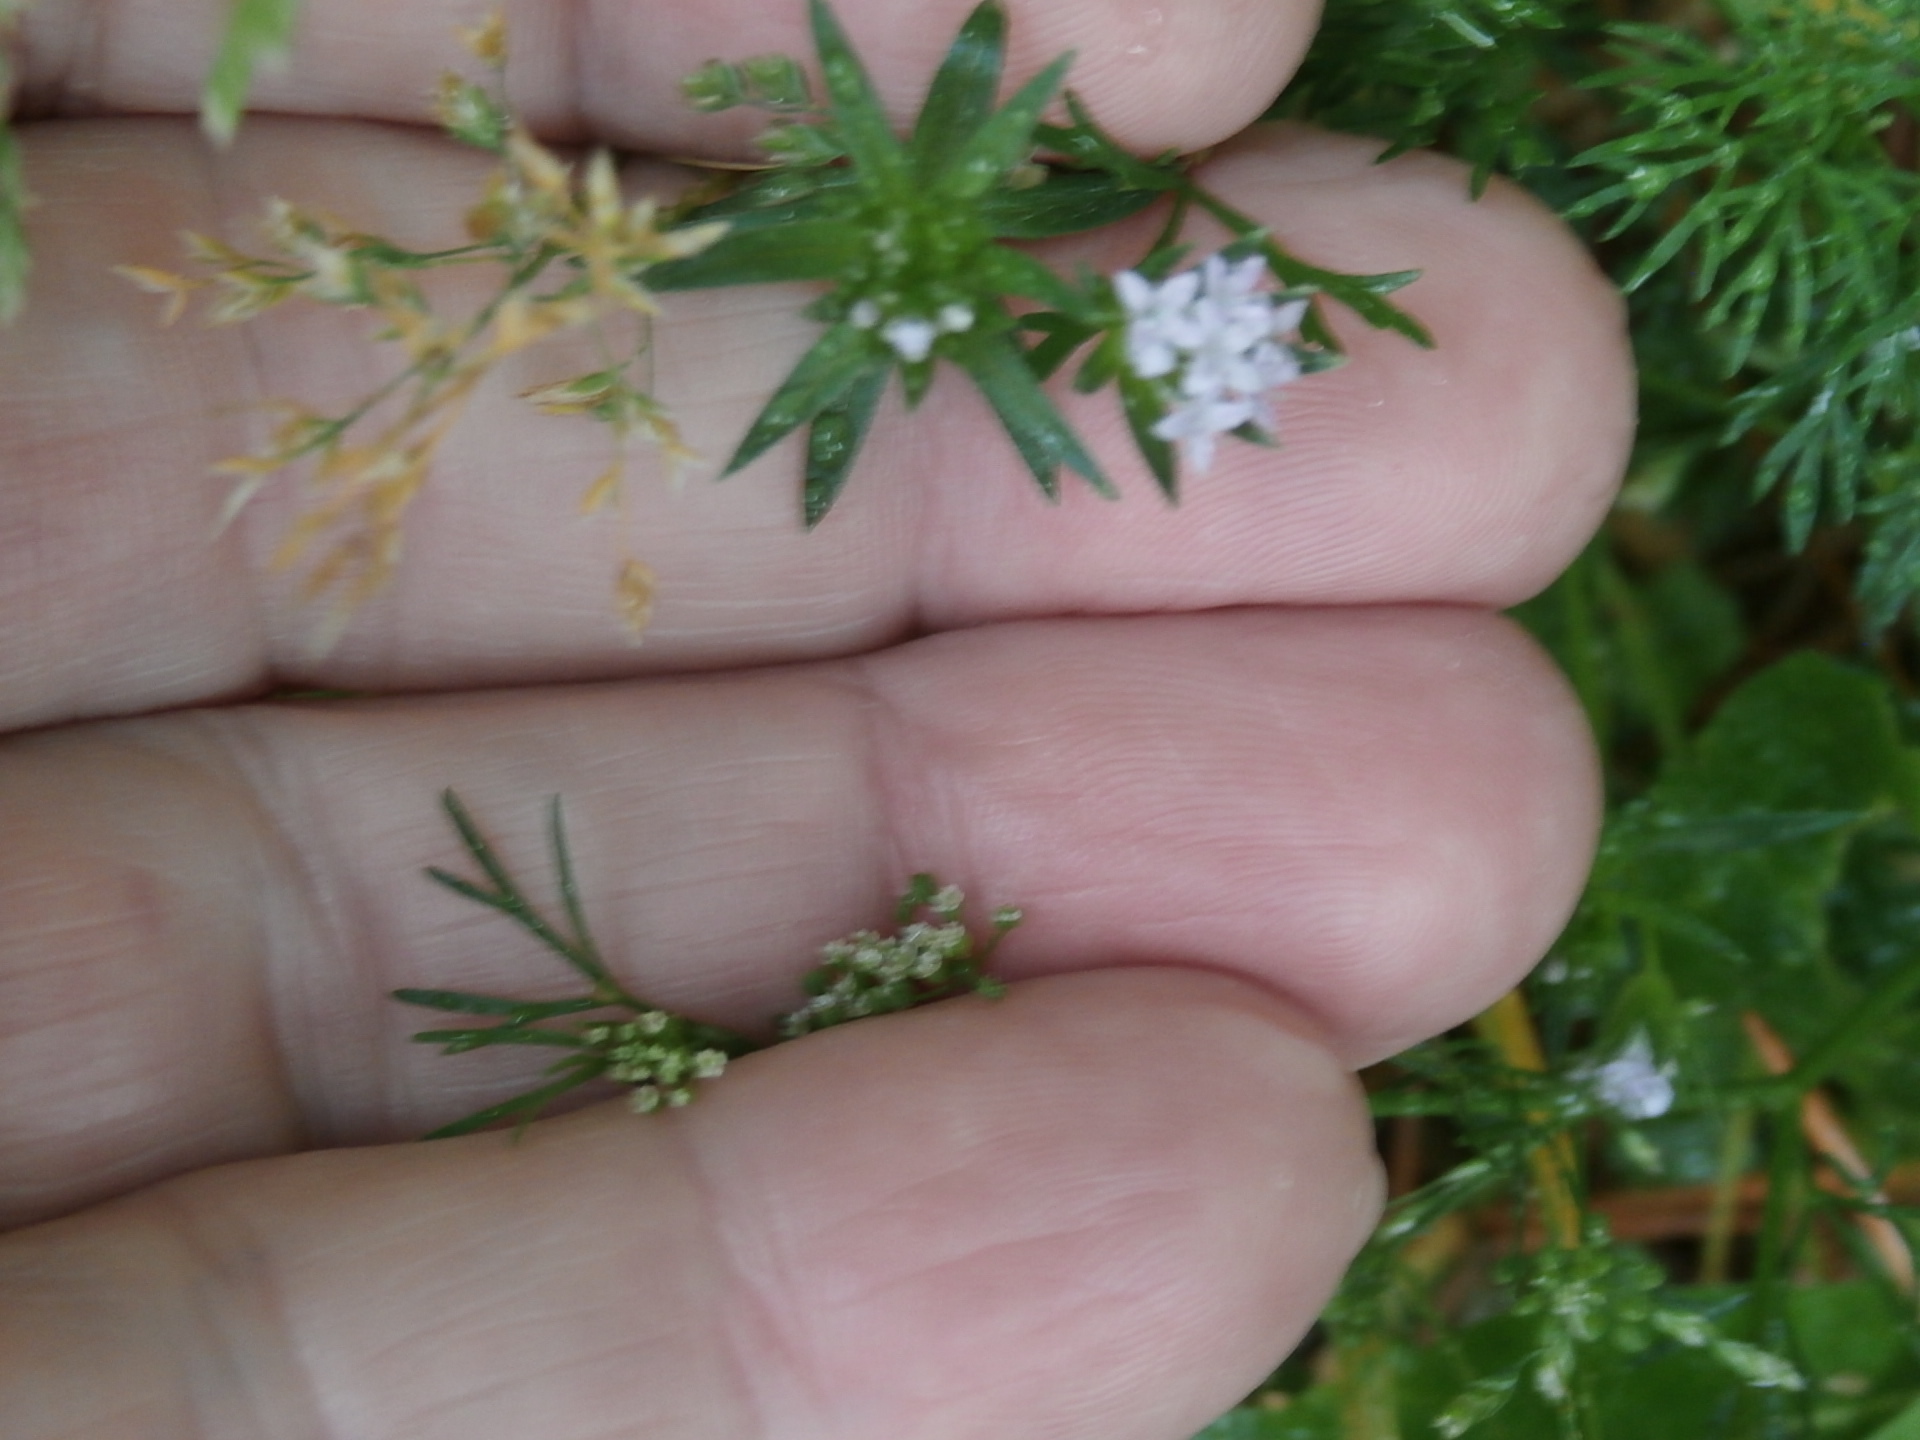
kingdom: Plantae
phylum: Tracheophyta
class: Magnoliopsida
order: Gentianales
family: Rubiaceae
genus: Sherardia
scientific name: Sherardia arvensis
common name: Field madder
